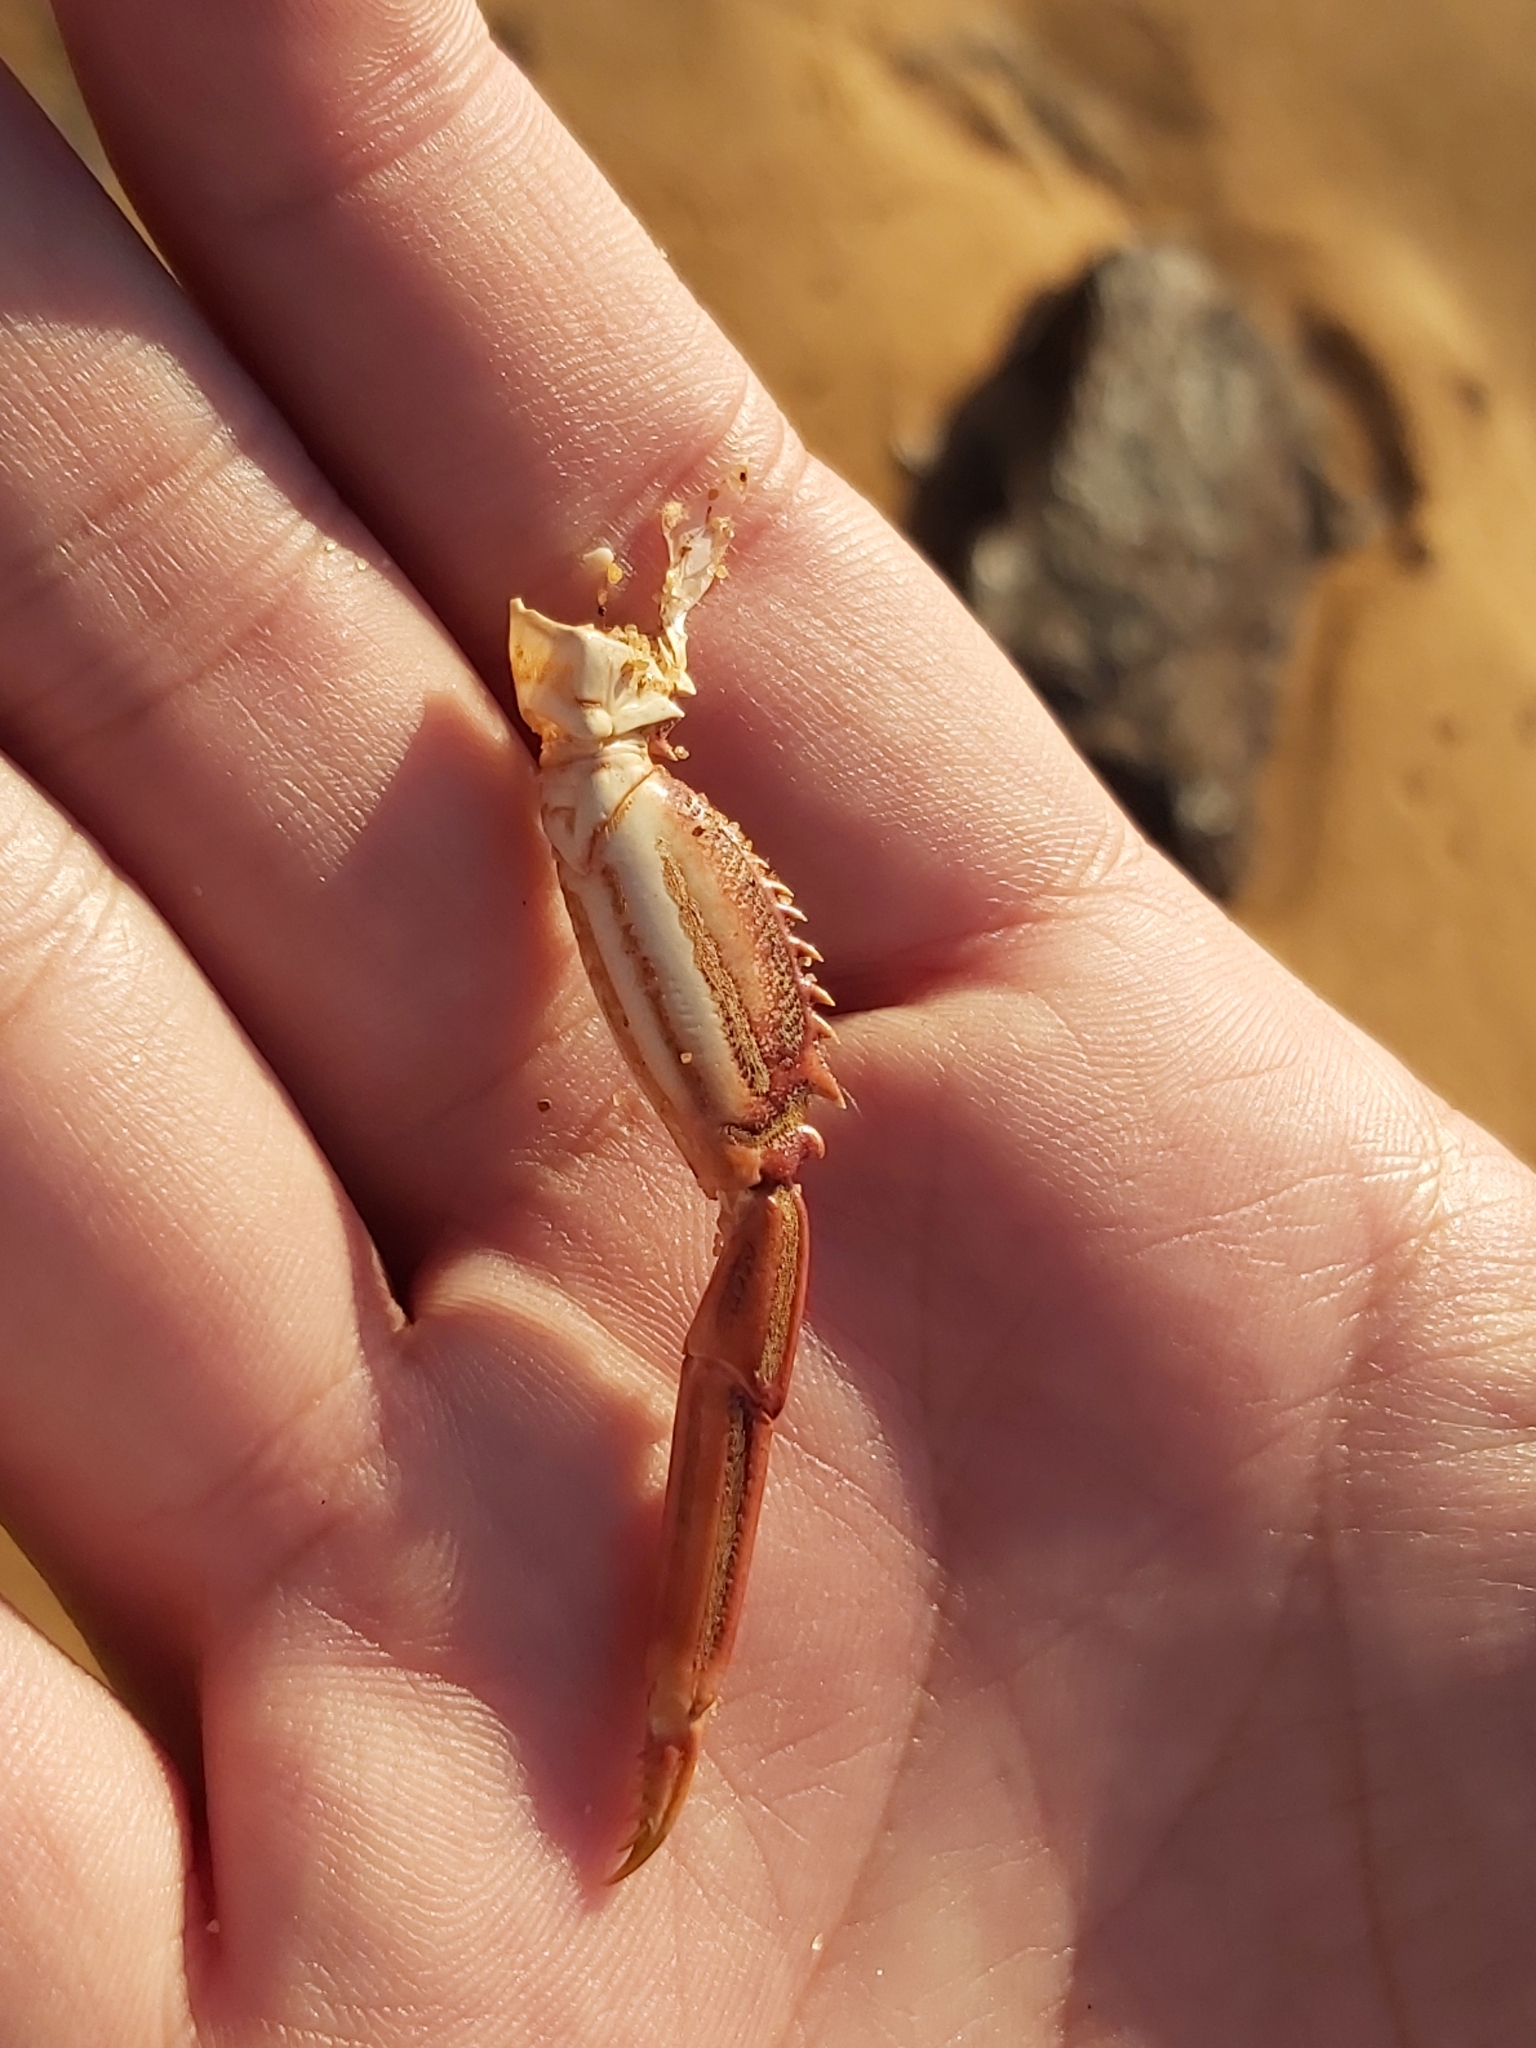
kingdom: Animalia
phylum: Arthropoda
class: Malacostraca
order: Decapoda
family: Plagusiidae
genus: Guinusia
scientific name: Guinusia chabrus
